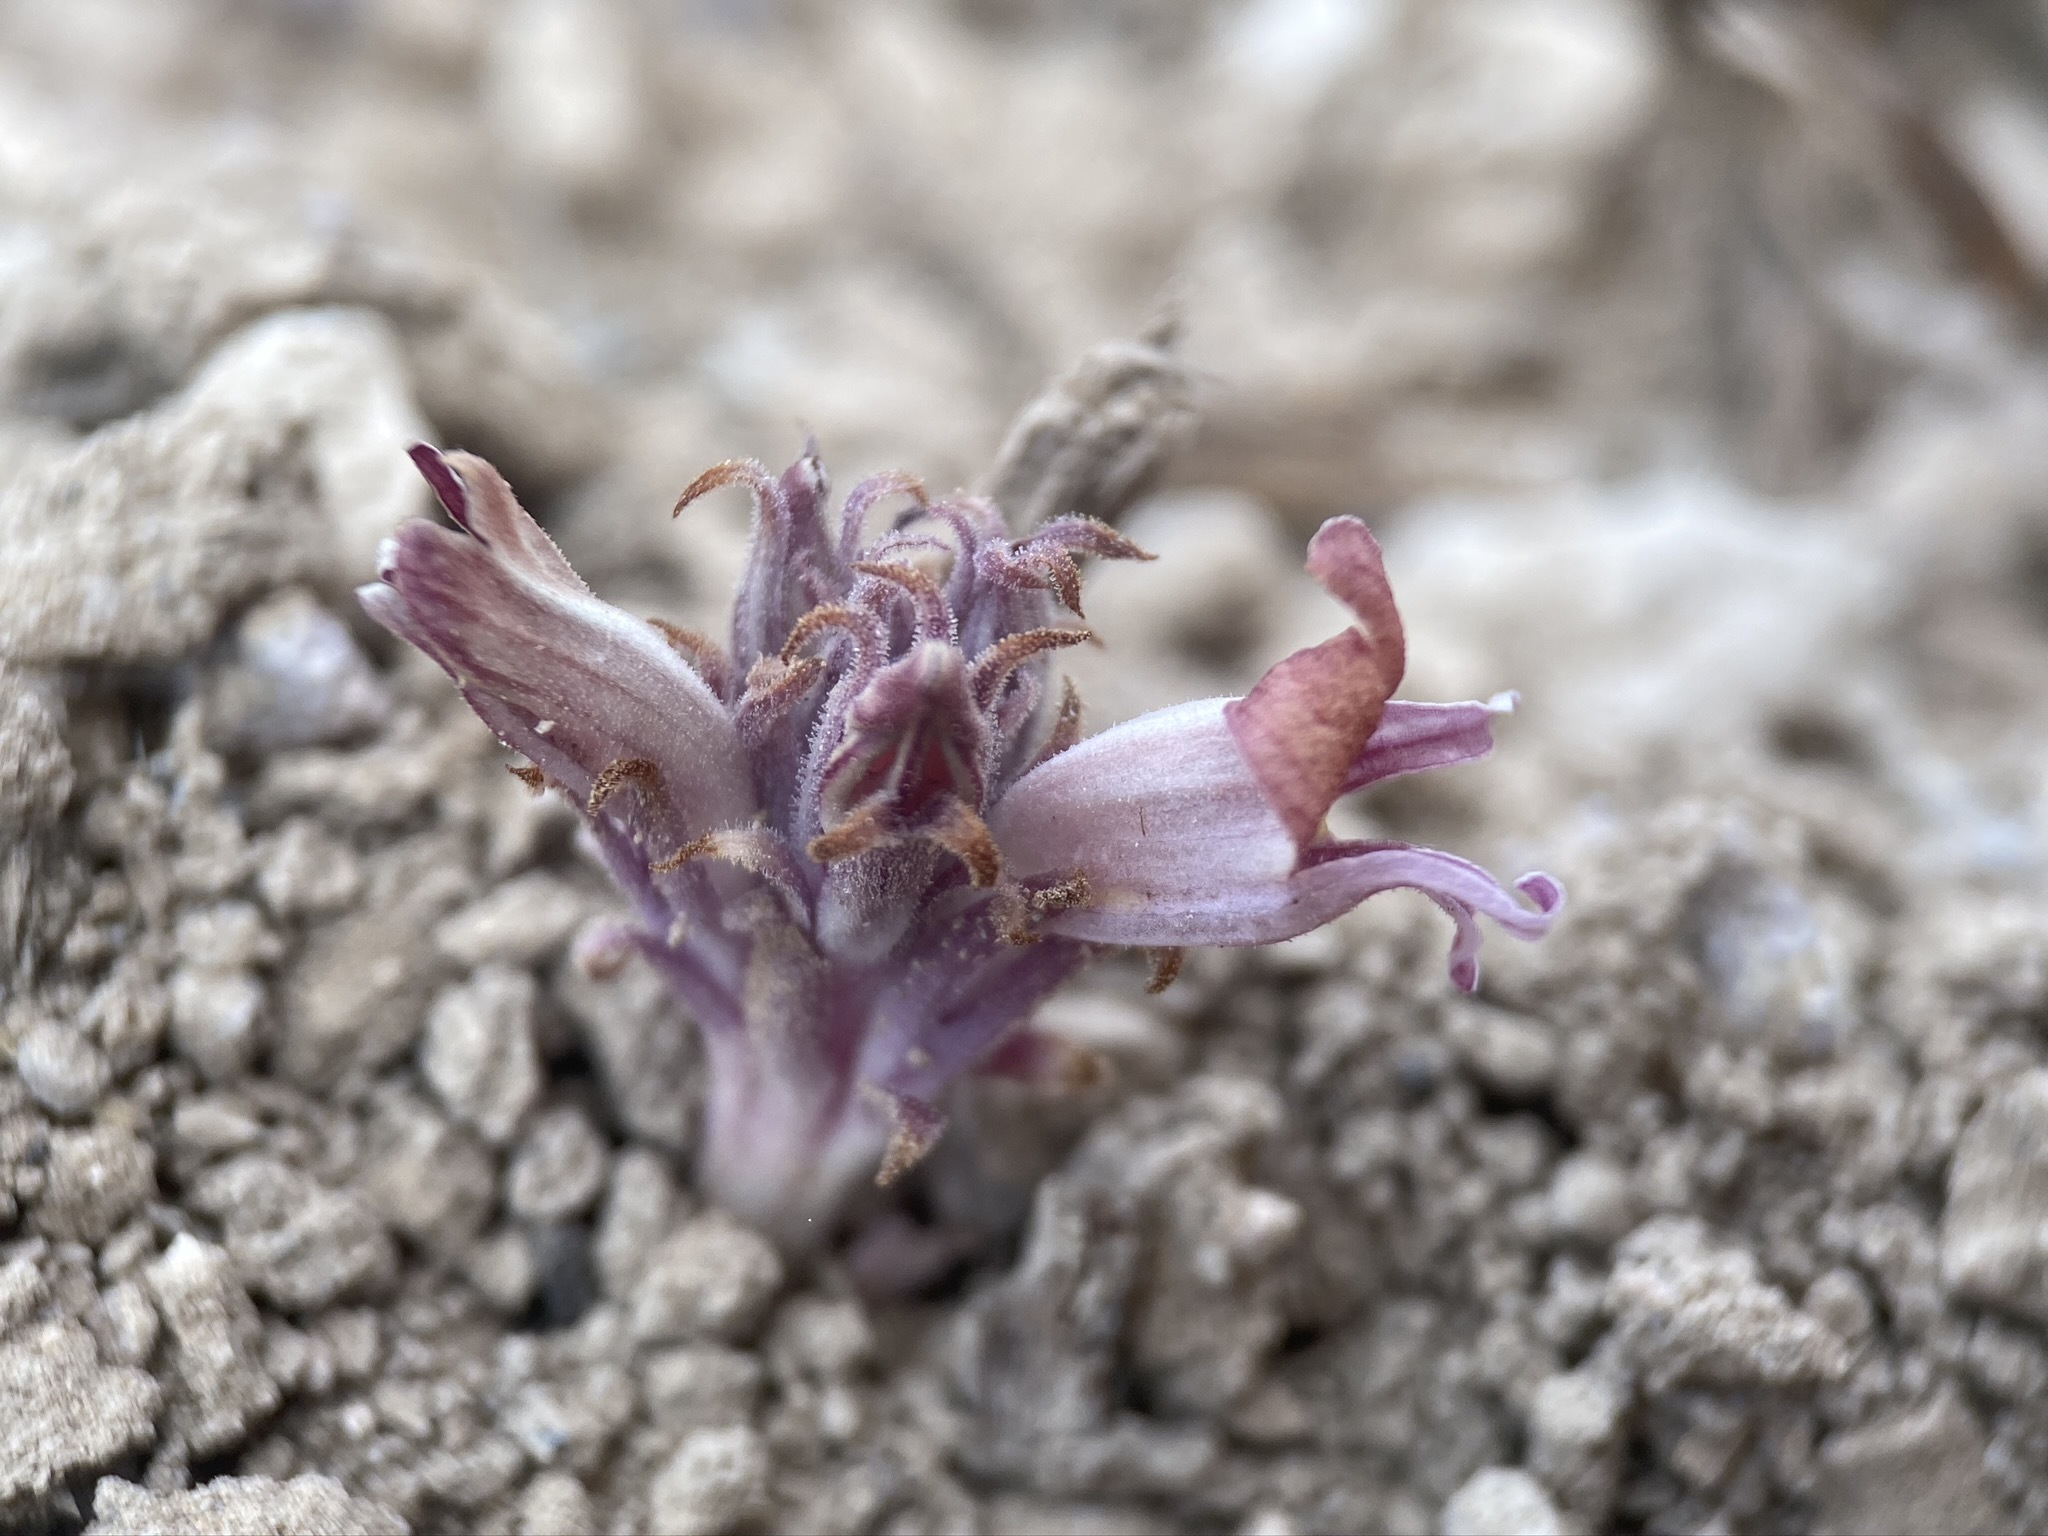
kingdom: Plantae
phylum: Tracheophyta
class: Magnoliopsida
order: Lamiales
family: Orobanchaceae
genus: Aphyllon
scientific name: Aphyllon corymbosum
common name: Flat-top broomrape
